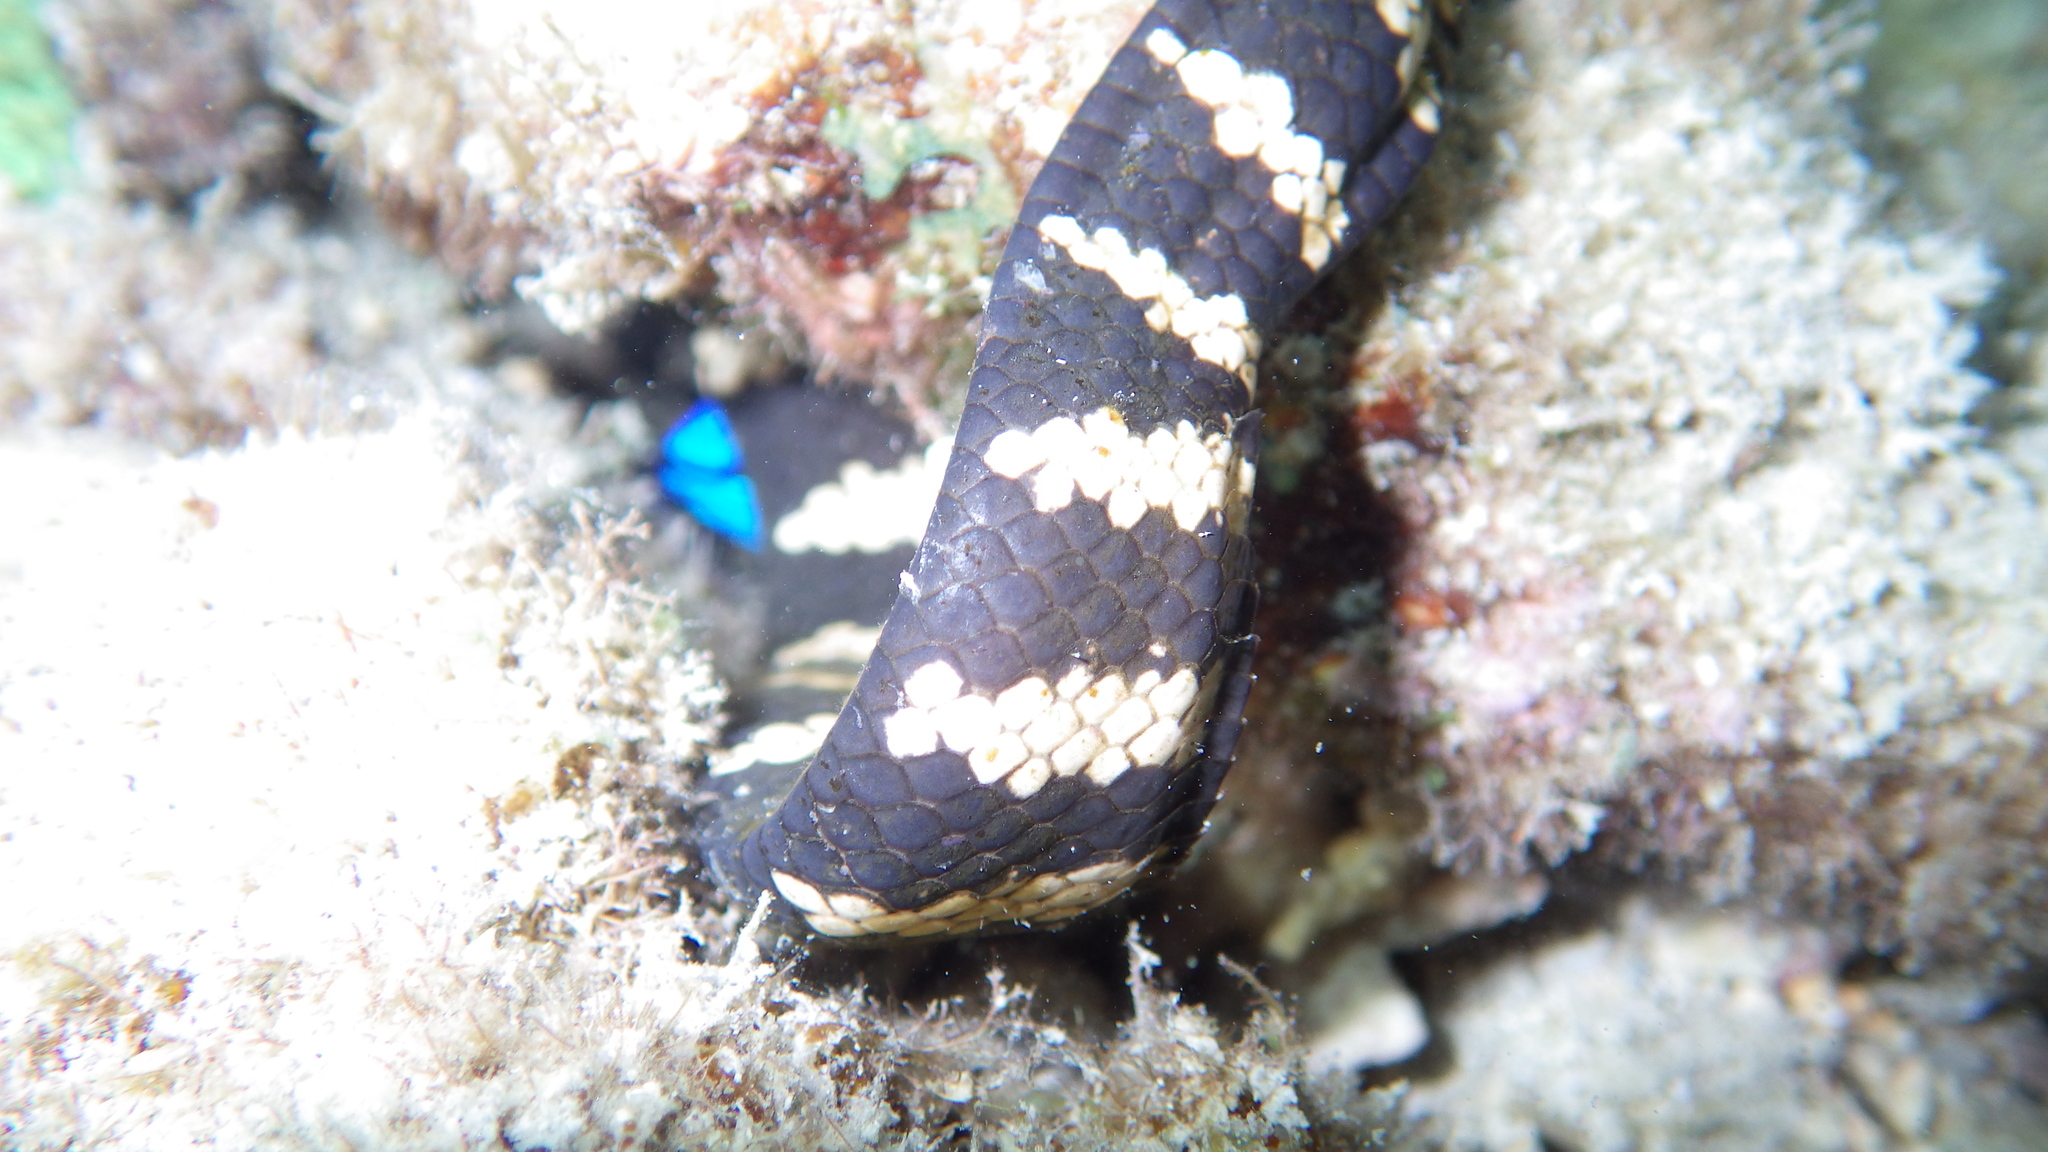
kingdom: Animalia
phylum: Chordata
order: Perciformes
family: Pomacentridae
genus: Chrysiptera
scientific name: Chrysiptera cyanea
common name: Blue devil
